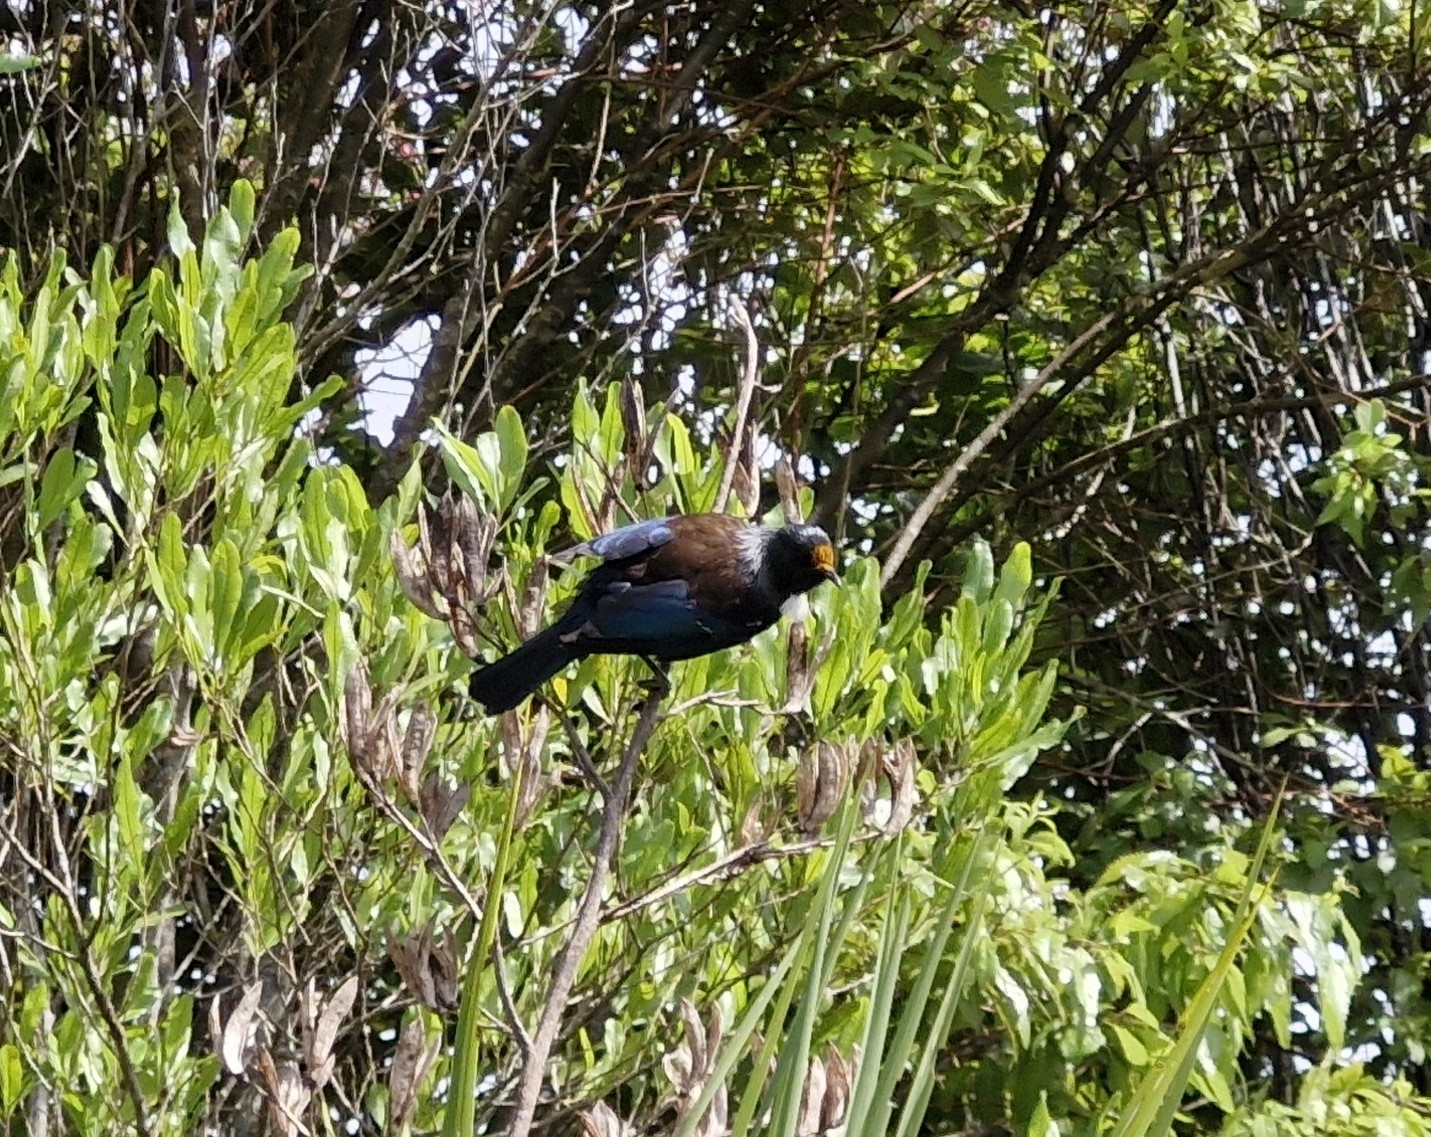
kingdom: Animalia
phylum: Chordata
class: Aves
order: Passeriformes
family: Meliphagidae
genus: Prosthemadera
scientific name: Prosthemadera novaeseelandiae
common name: Tui
